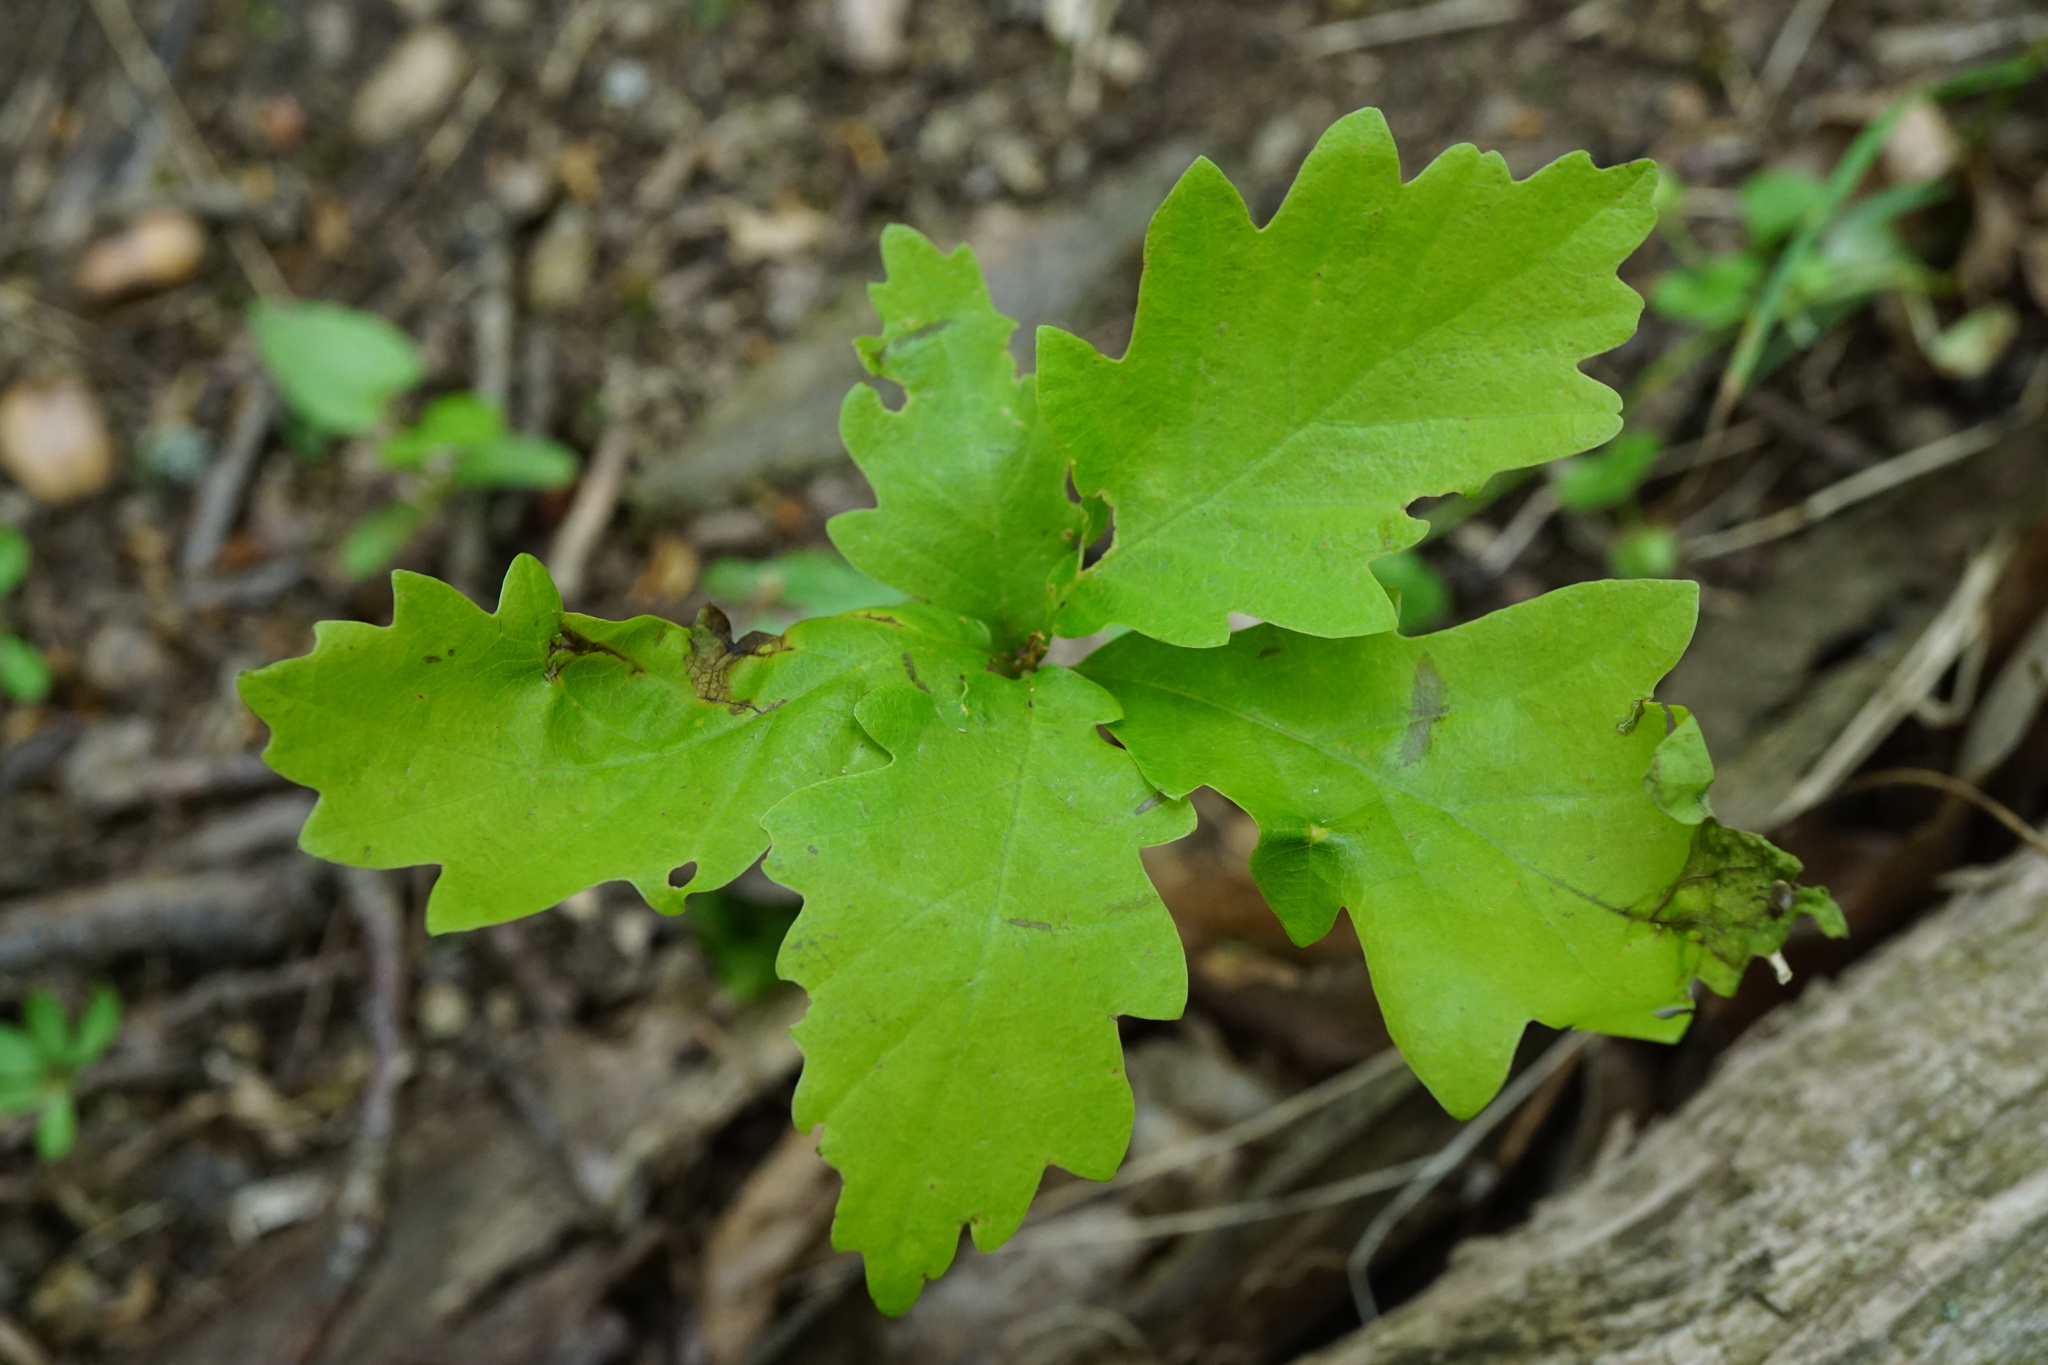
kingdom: Plantae
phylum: Tracheophyta
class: Magnoliopsida
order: Fagales
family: Fagaceae
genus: Quercus
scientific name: Quercus petraea
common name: Sessile oak
